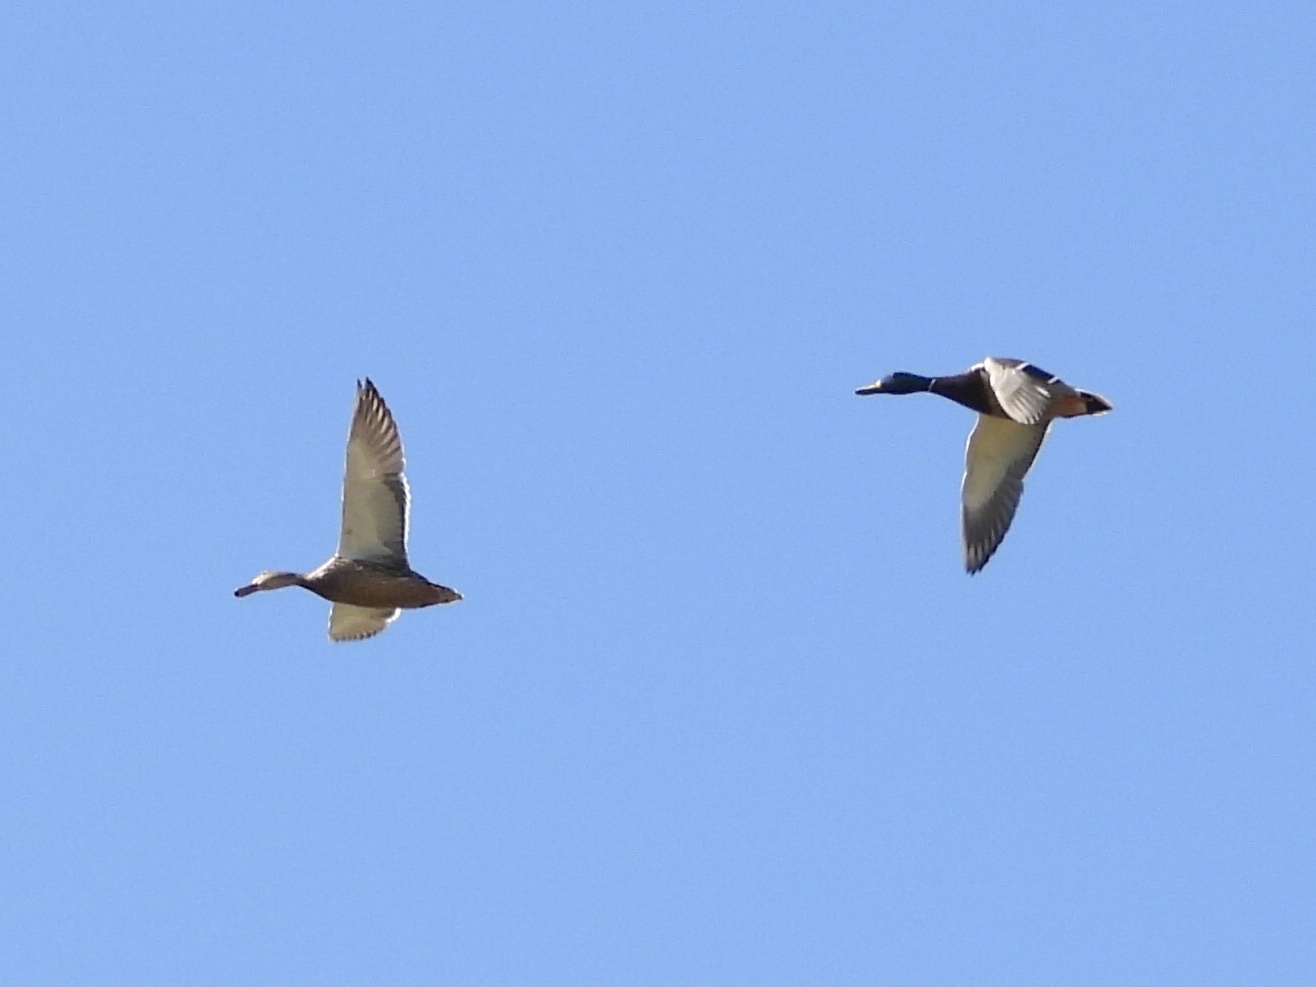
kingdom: Animalia
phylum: Chordata
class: Aves
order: Anseriformes
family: Anatidae
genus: Anas
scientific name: Anas platyrhynchos
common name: Mallard
